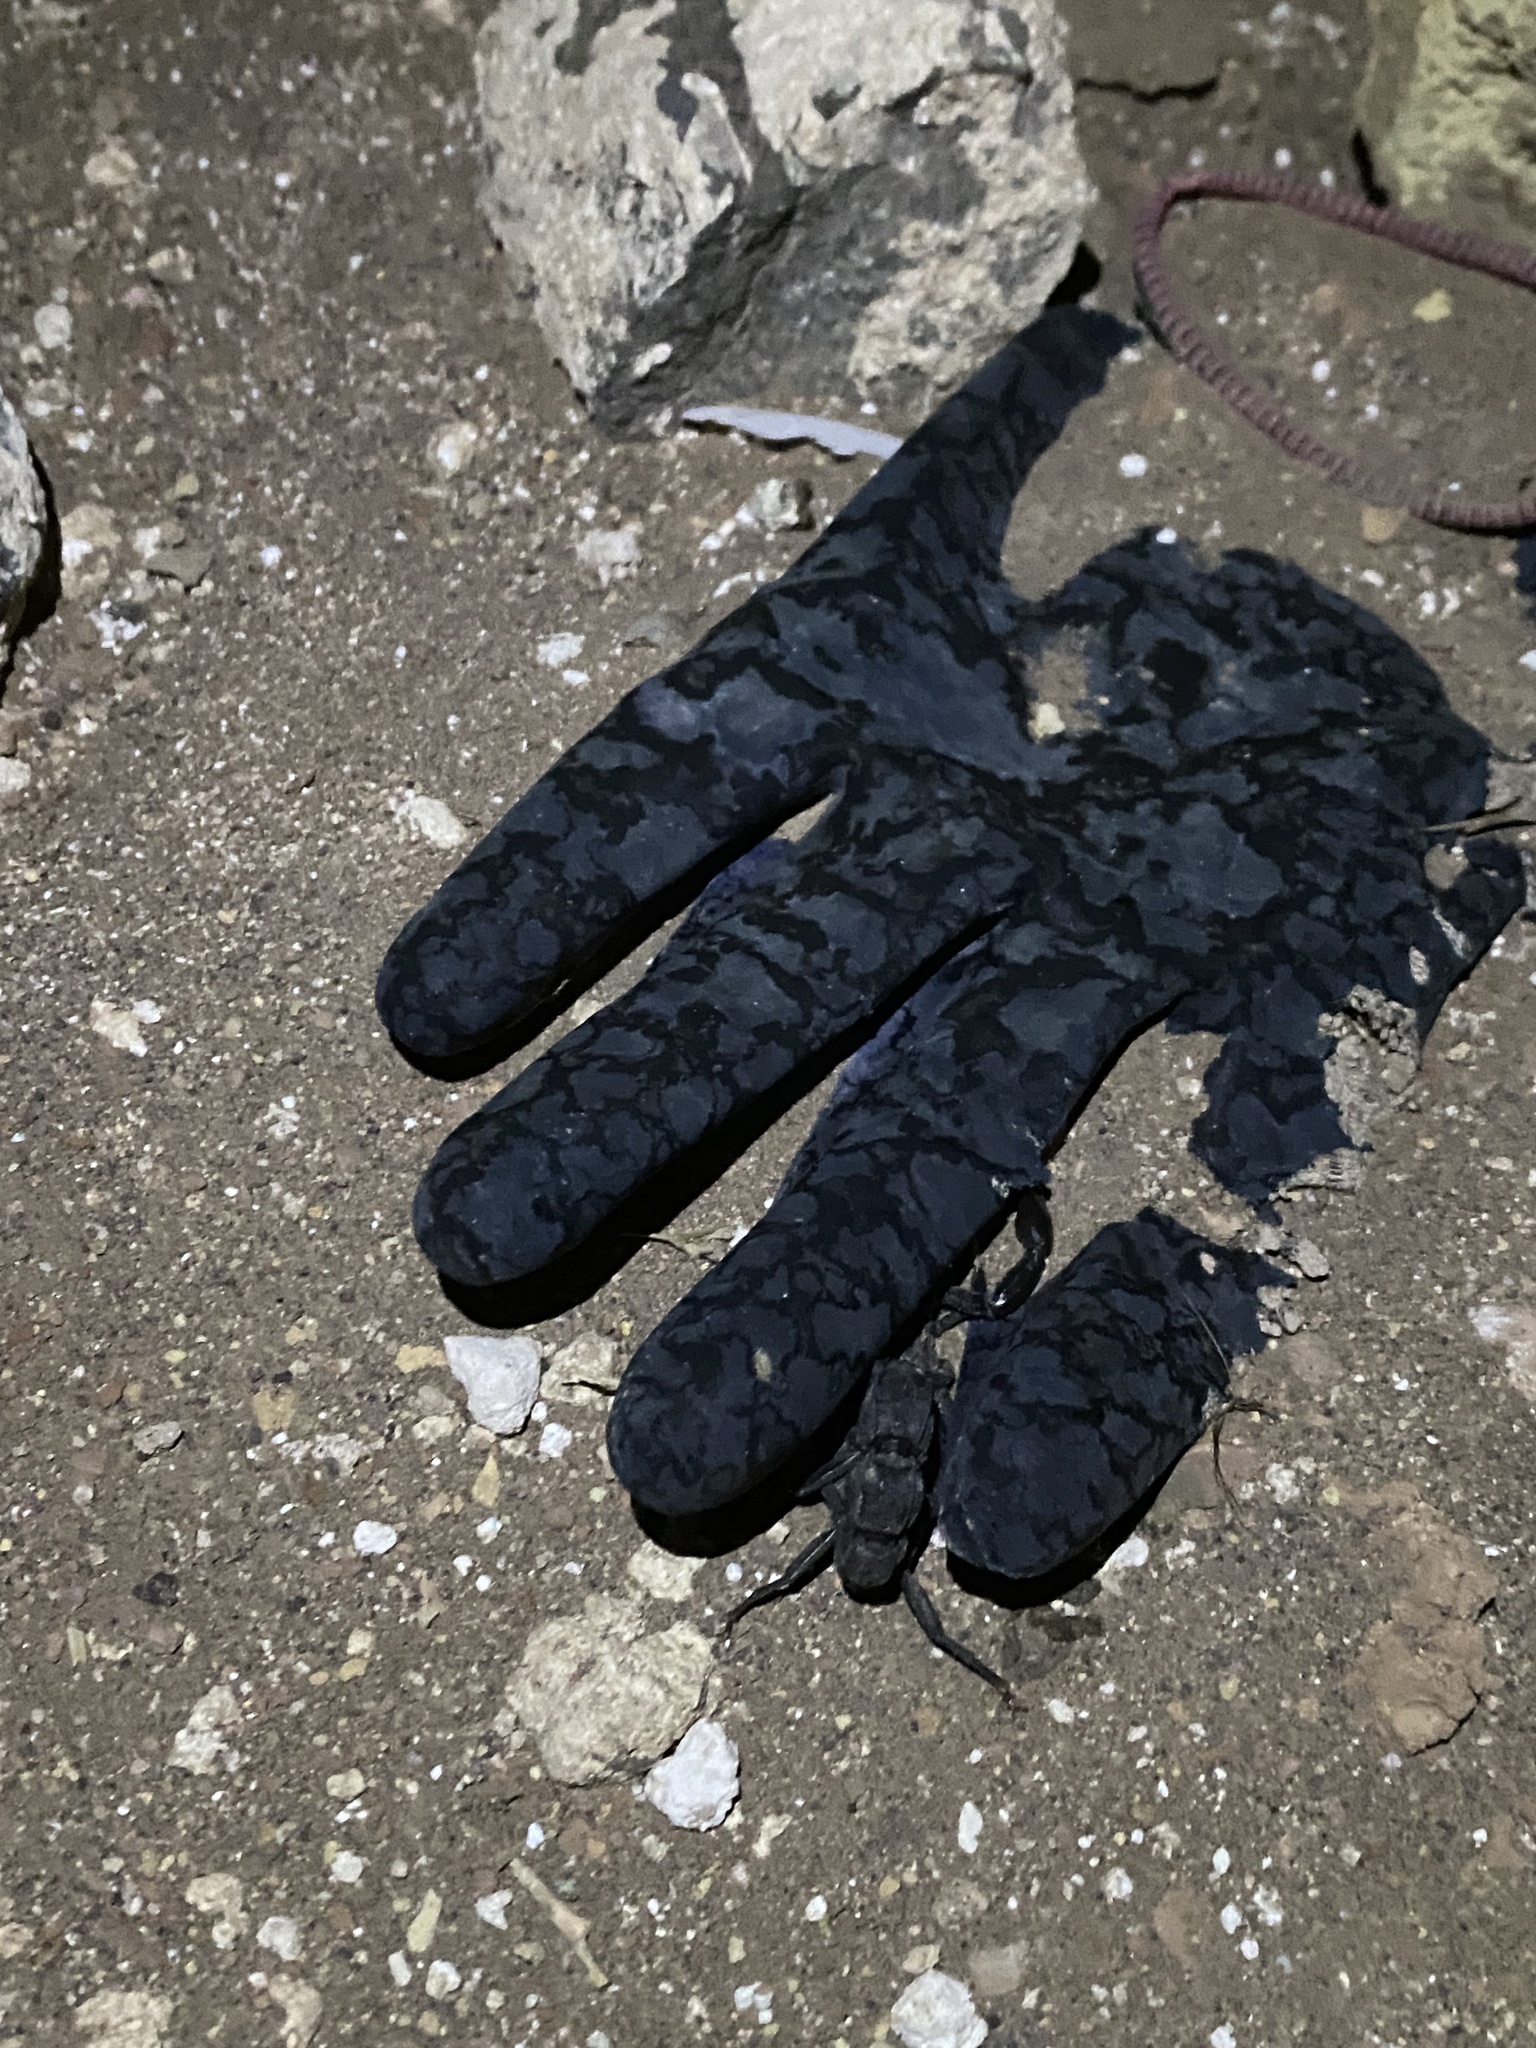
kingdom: Animalia
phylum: Arthropoda
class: Arachnida
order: Scorpiones
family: Buthidae
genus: Androctonus
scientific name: Androctonus crassicauda
